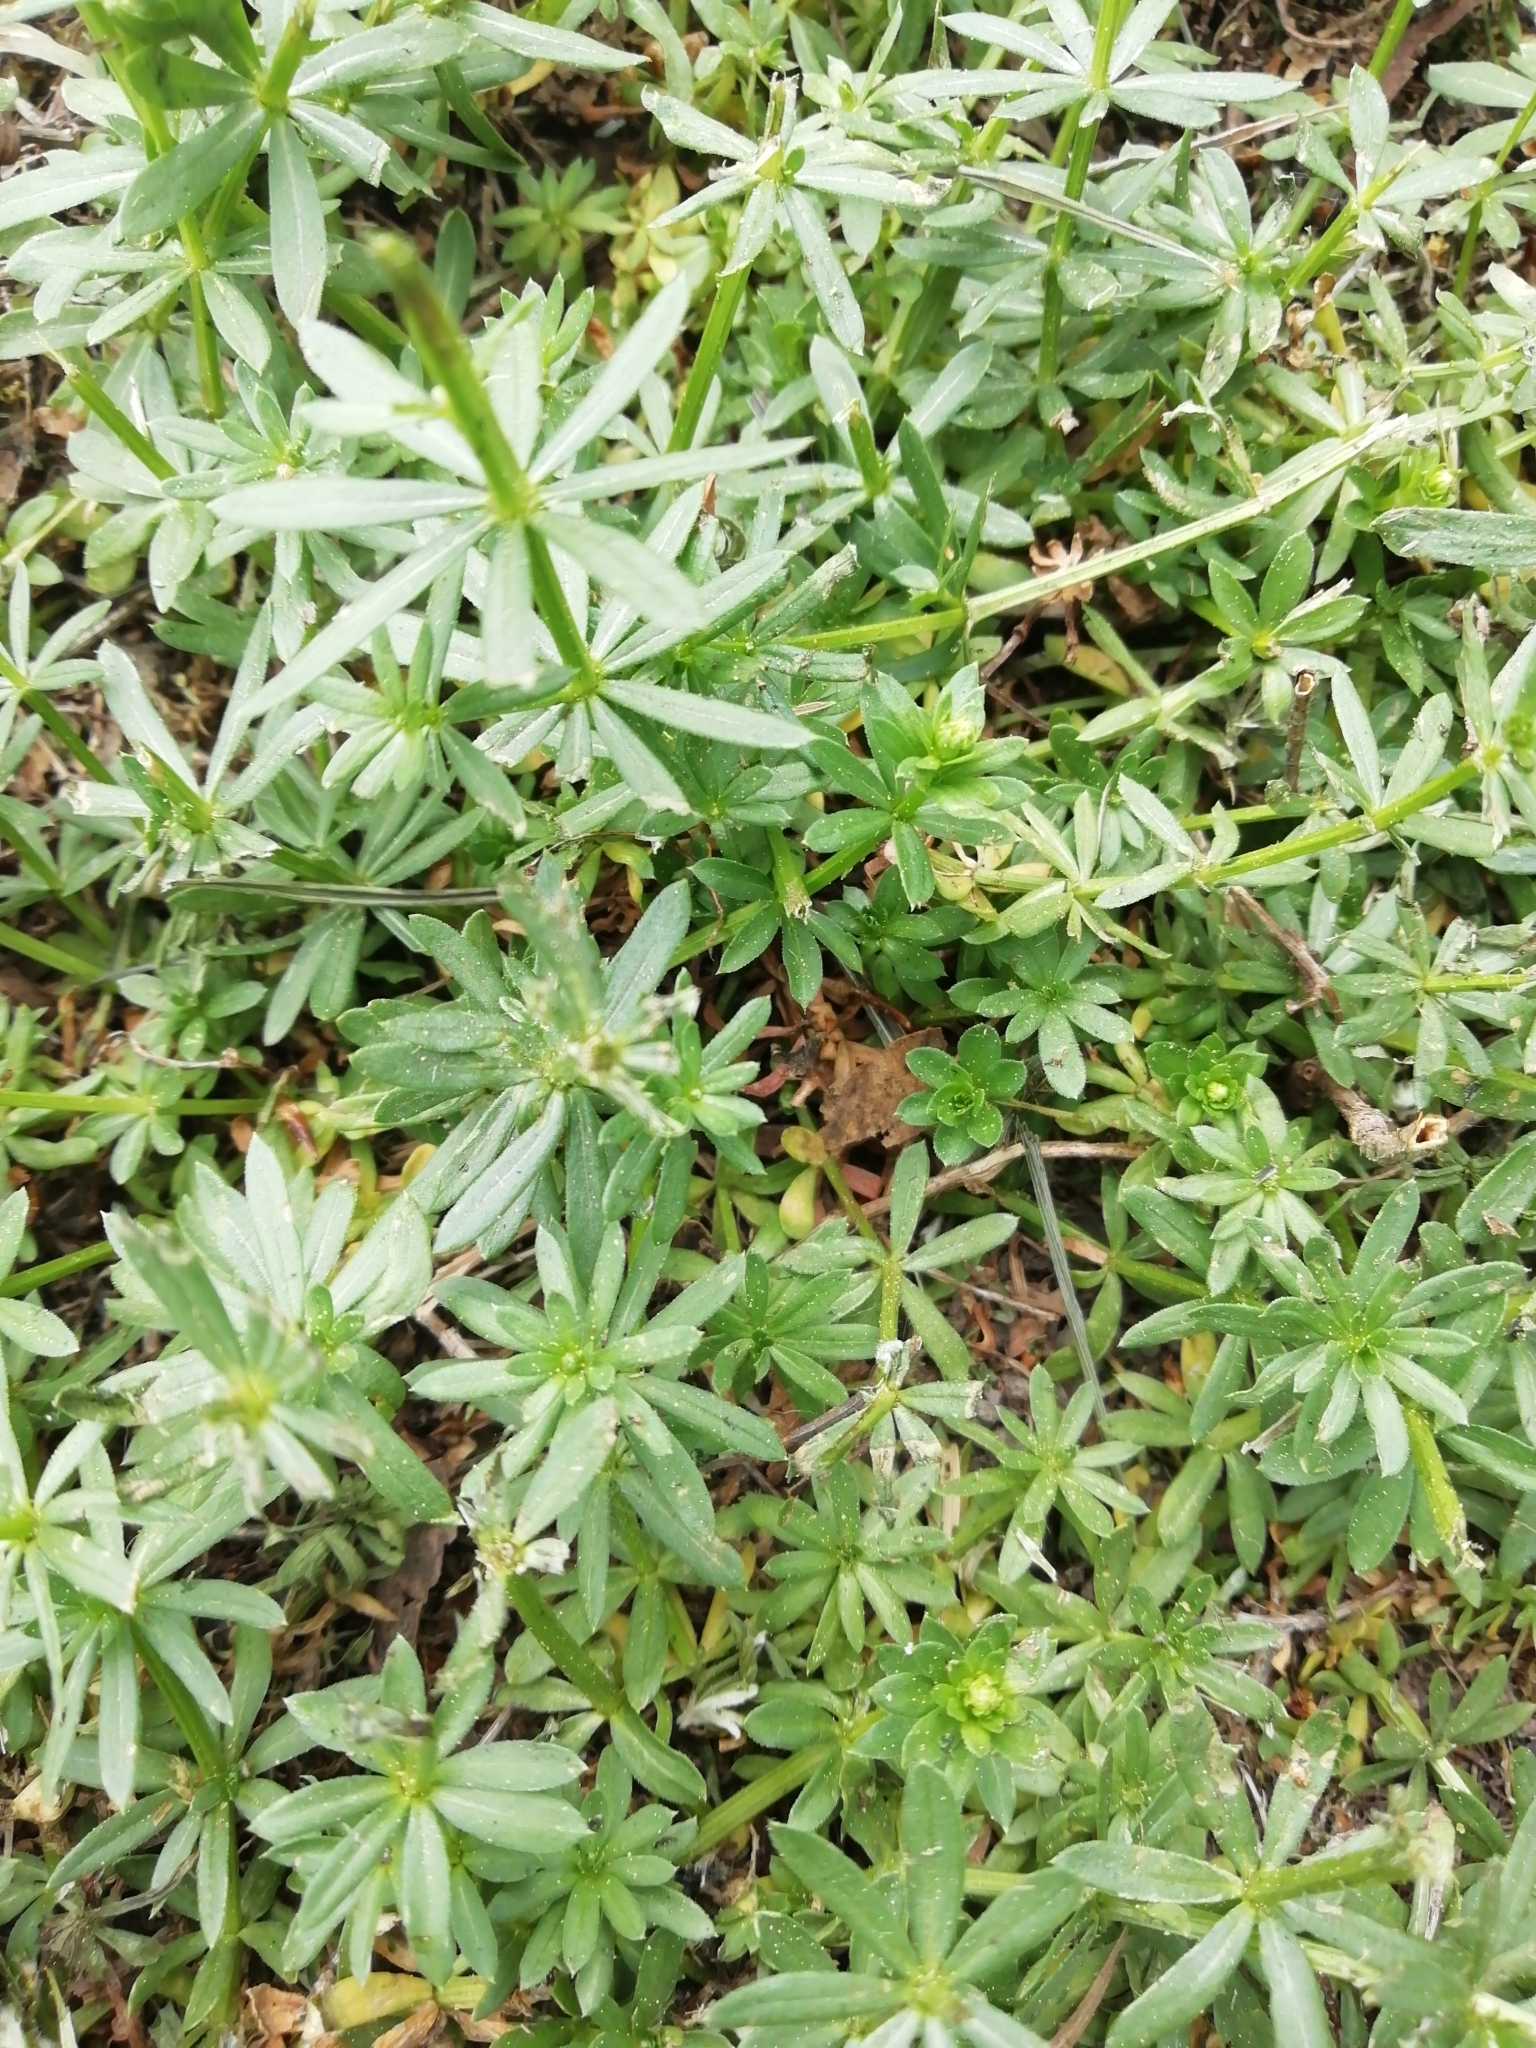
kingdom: Plantae
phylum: Tracheophyta
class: Magnoliopsida
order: Gentianales
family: Rubiaceae
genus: Galium
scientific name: Galium mollugo
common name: Hedge bedstraw
